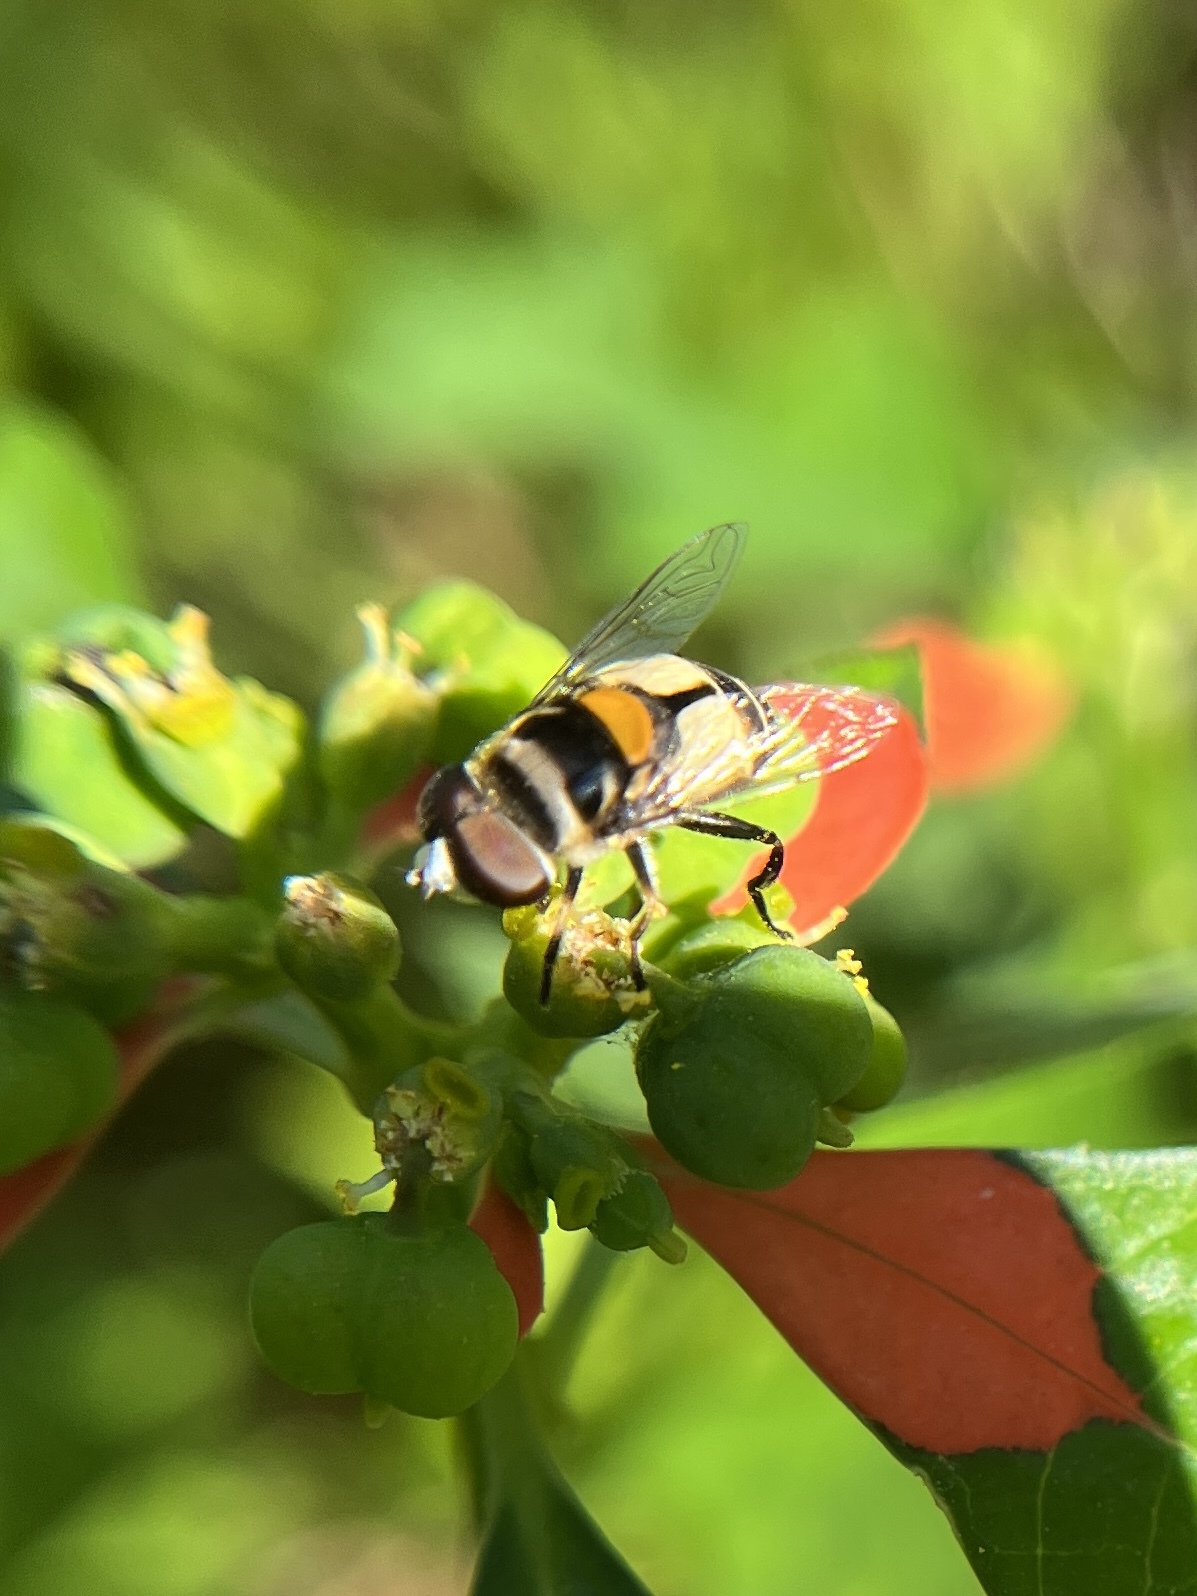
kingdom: Animalia
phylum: Arthropoda
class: Insecta
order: Diptera
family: Syrphidae
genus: Palpada
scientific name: Palpada albifrons
